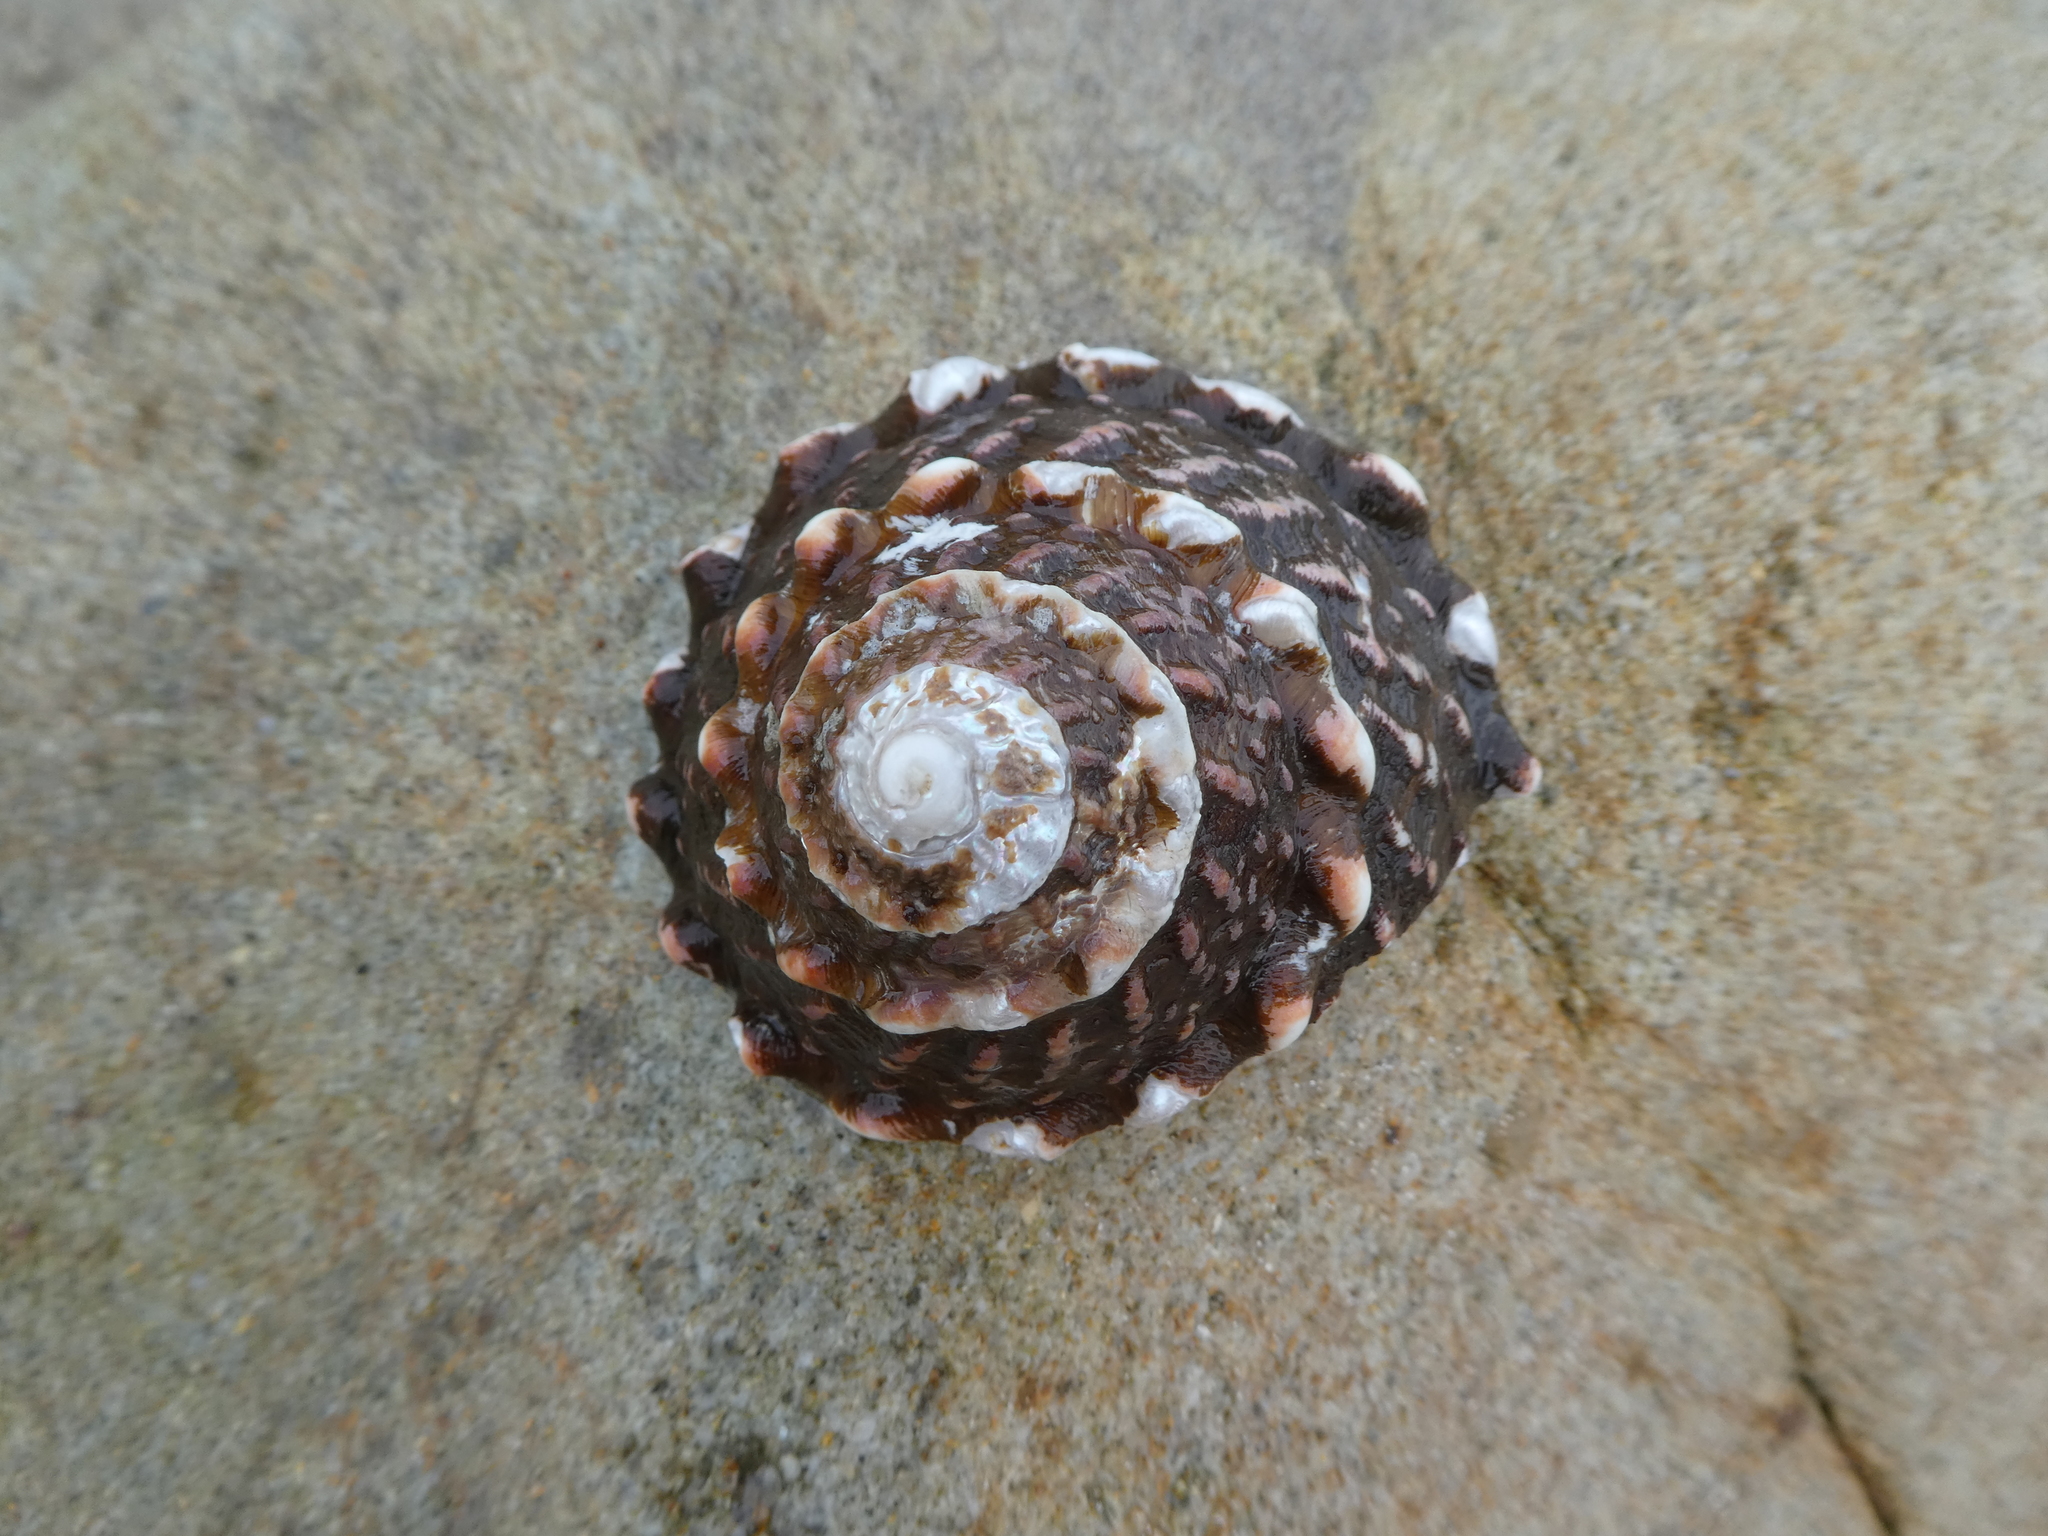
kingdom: Animalia
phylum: Mollusca
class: Gastropoda
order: Trochida
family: Turbinidae
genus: Megastraea
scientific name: Megastraea undosa
